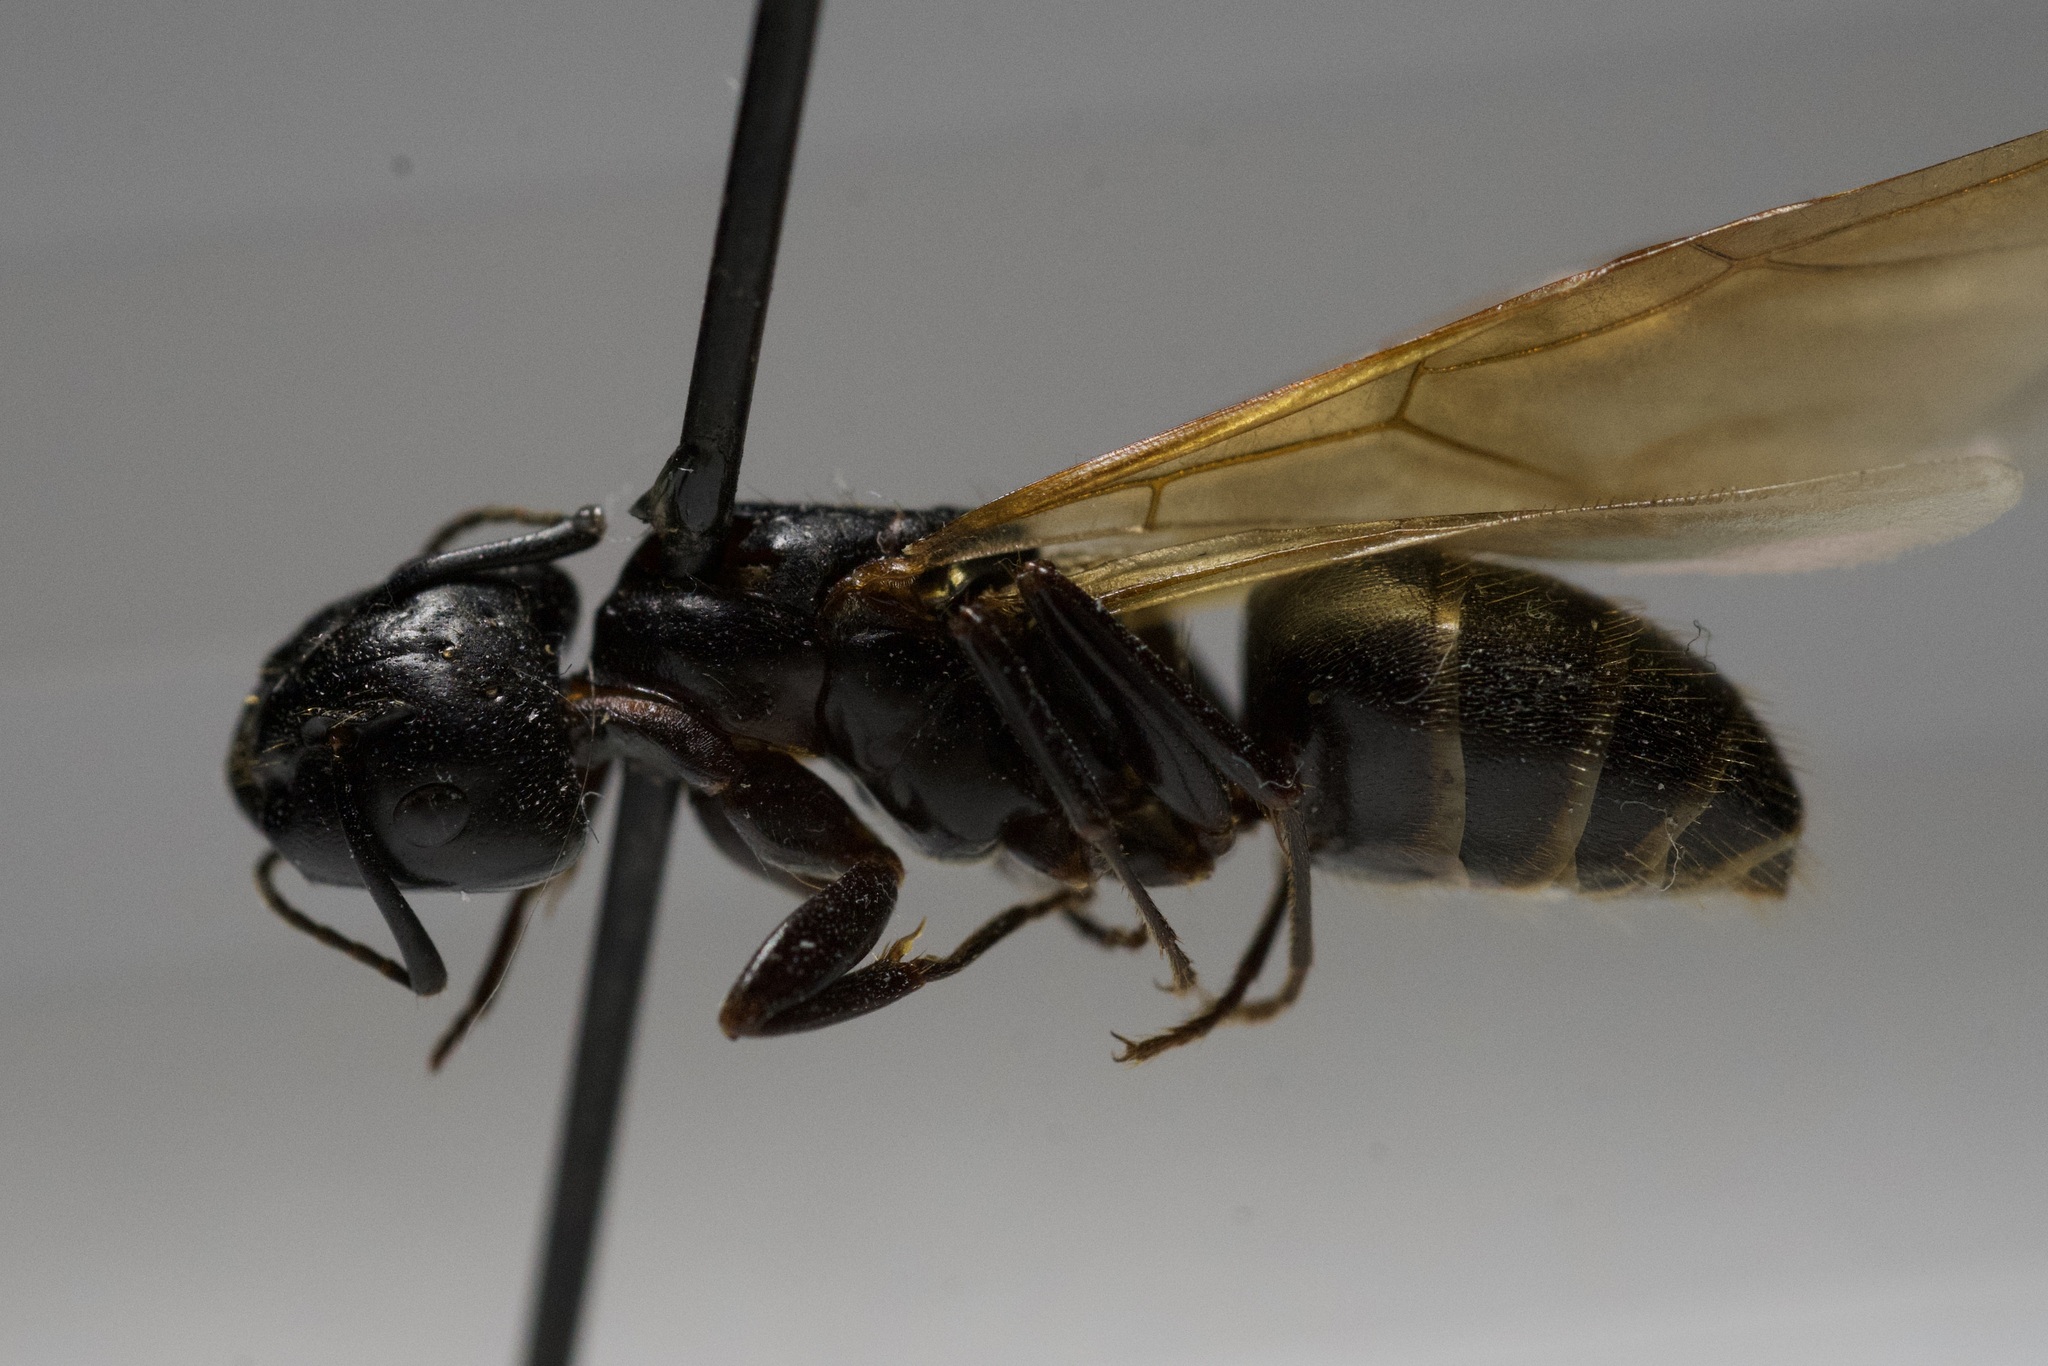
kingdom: Animalia
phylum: Arthropoda
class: Insecta
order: Hymenoptera
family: Formicidae
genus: Camponotus
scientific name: Camponotus pennsylvanicus
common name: Black carpenter ant
